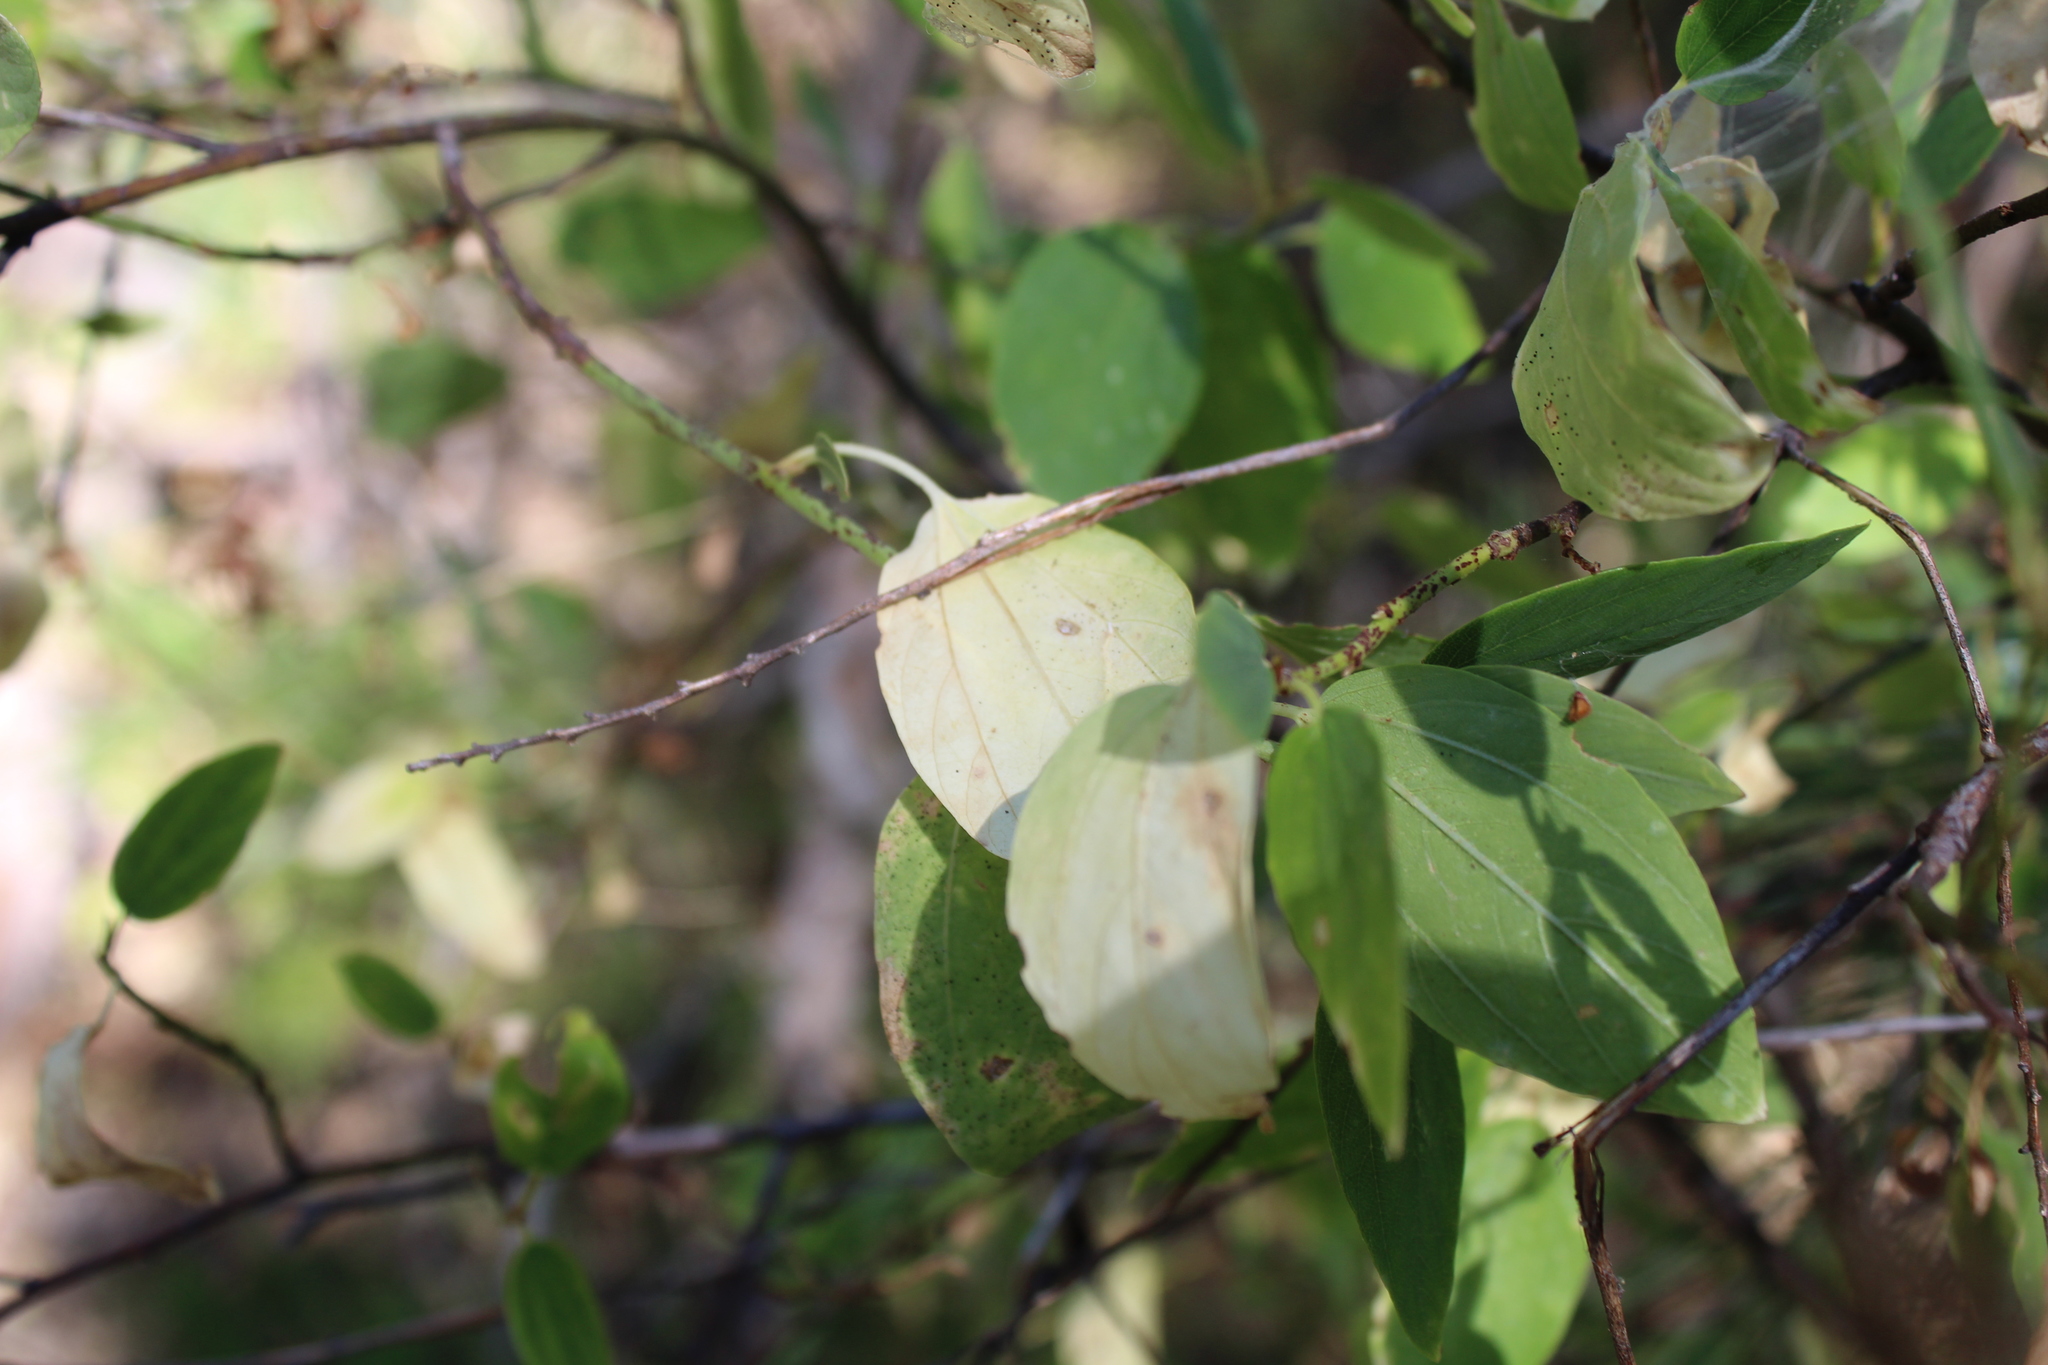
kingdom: Plantae
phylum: Tracheophyta
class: Magnoliopsida
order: Rosales
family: Rhamnaceae
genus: Ceanothus
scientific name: Ceanothus integerrimus
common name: Deerbrush ceanothus
